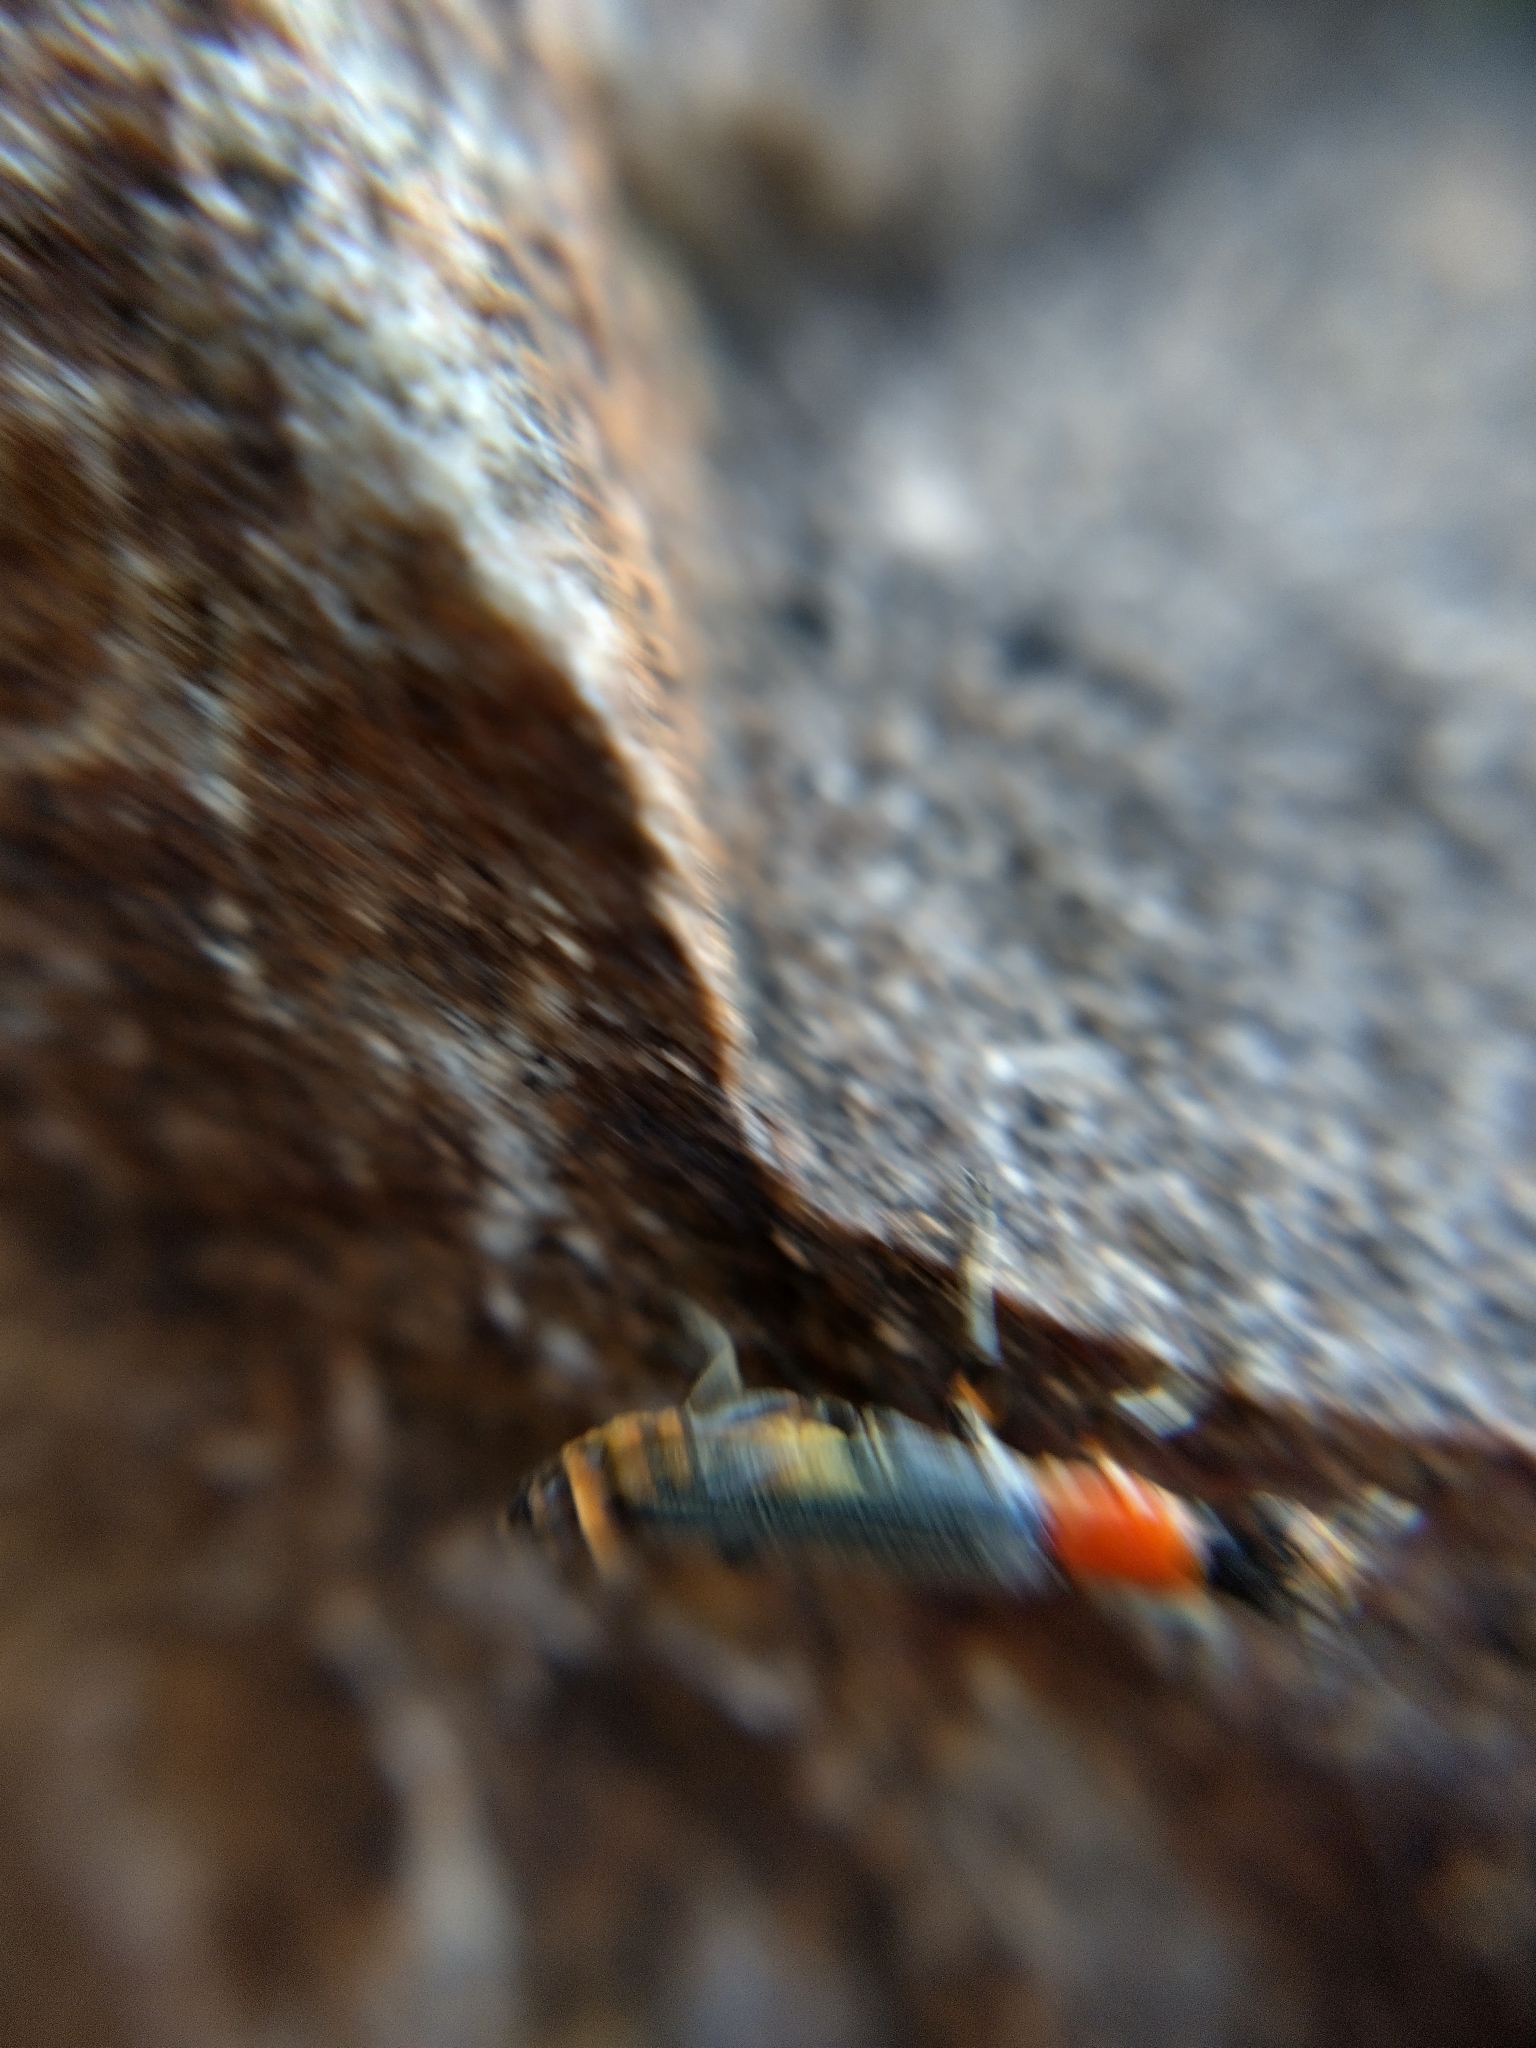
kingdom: Animalia
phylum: Arthropoda
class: Insecta
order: Coleoptera
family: Cantharidae
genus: Chauliognathus
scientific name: Chauliognathus
